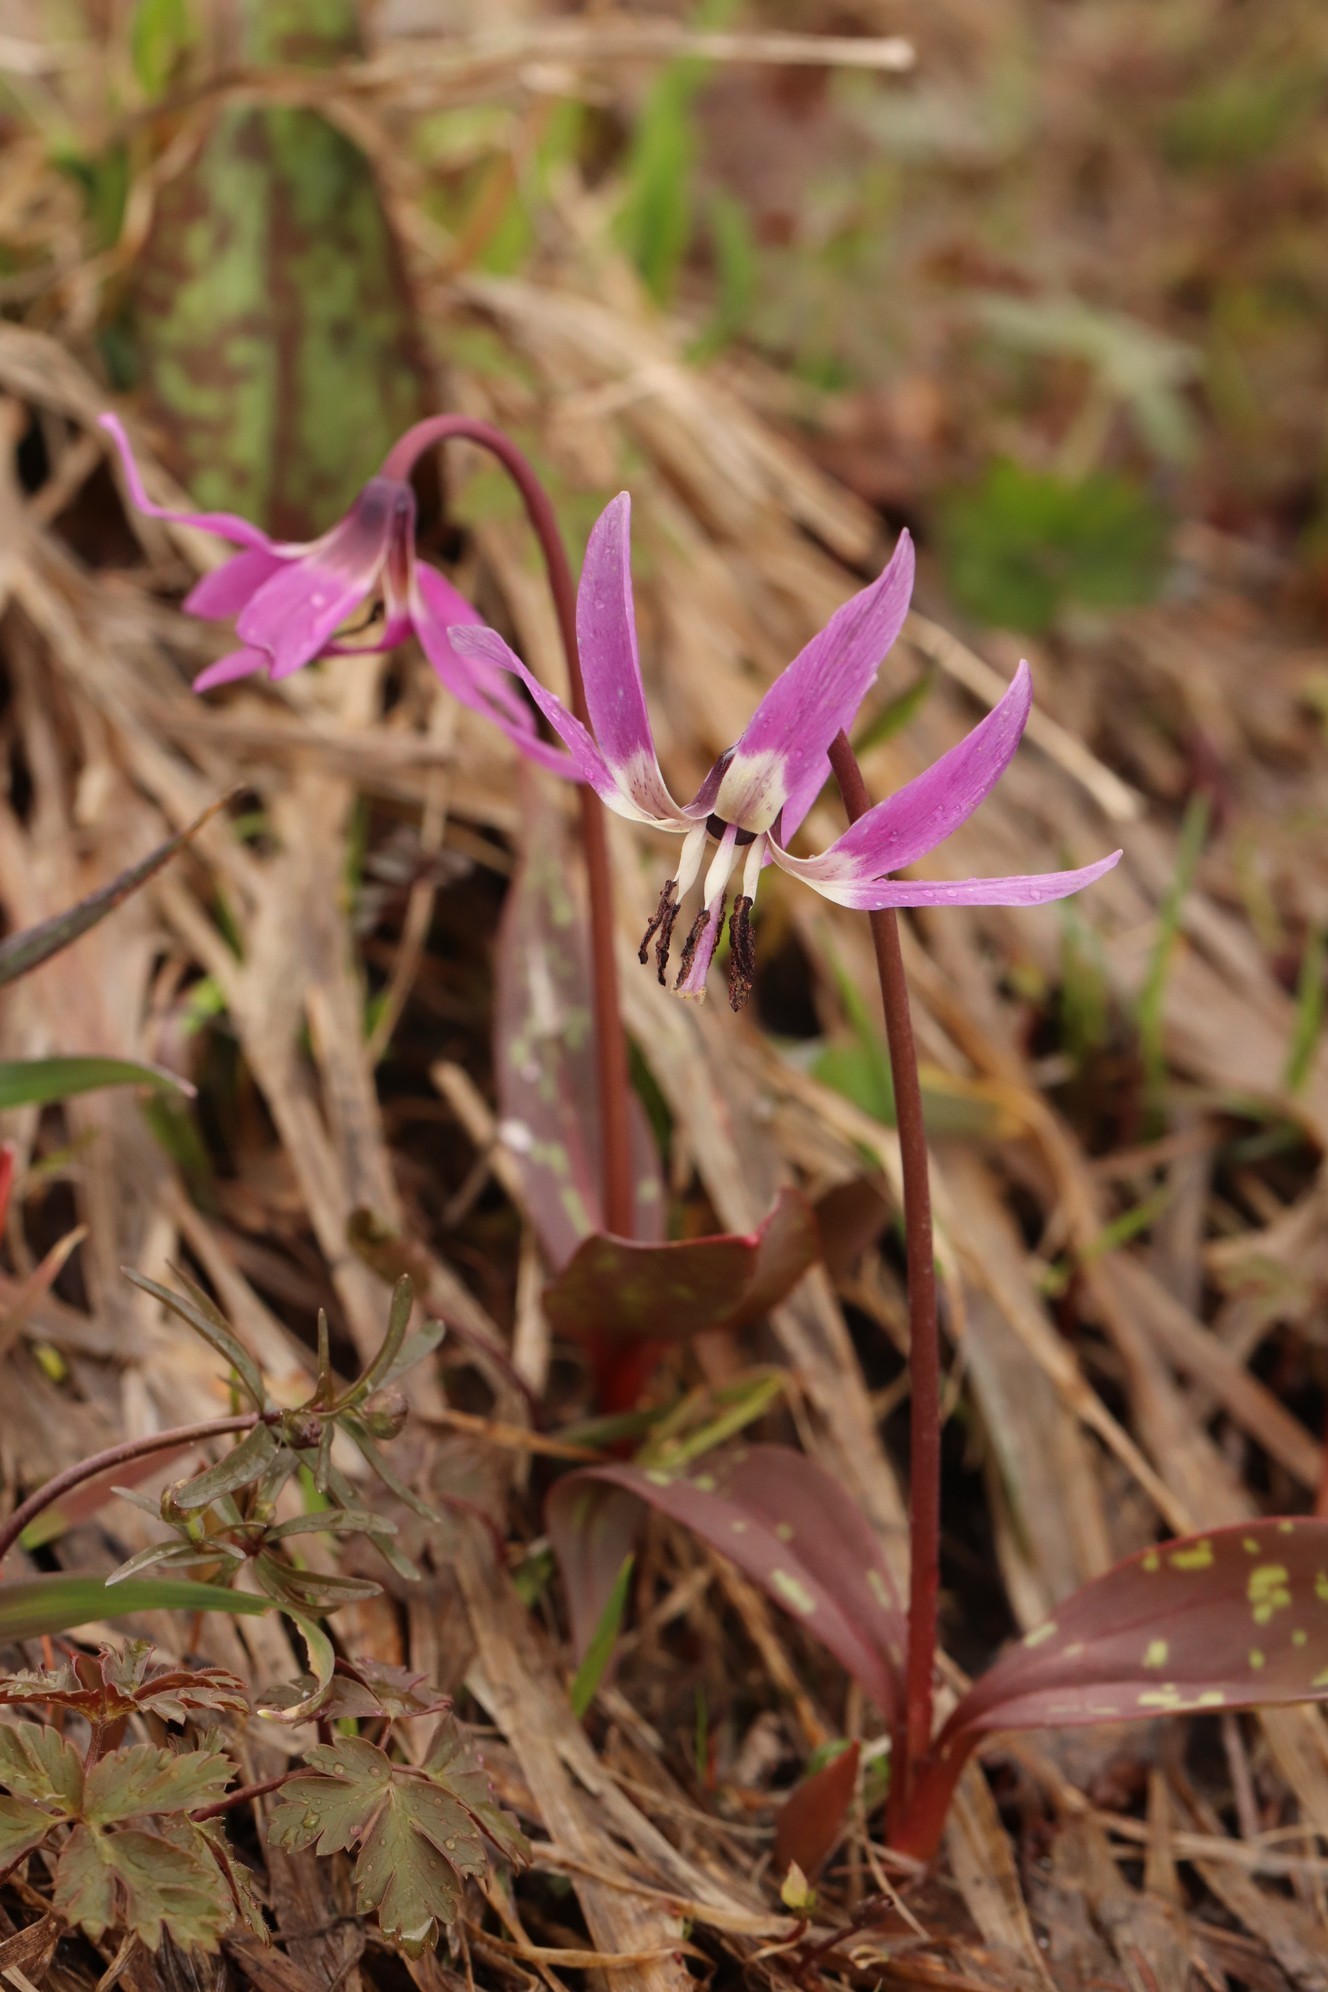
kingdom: Plantae
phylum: Tracheophyta
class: Liliopsida
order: Liliales
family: Liliaceae
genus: Erythronium
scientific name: Erythronium sulevii
